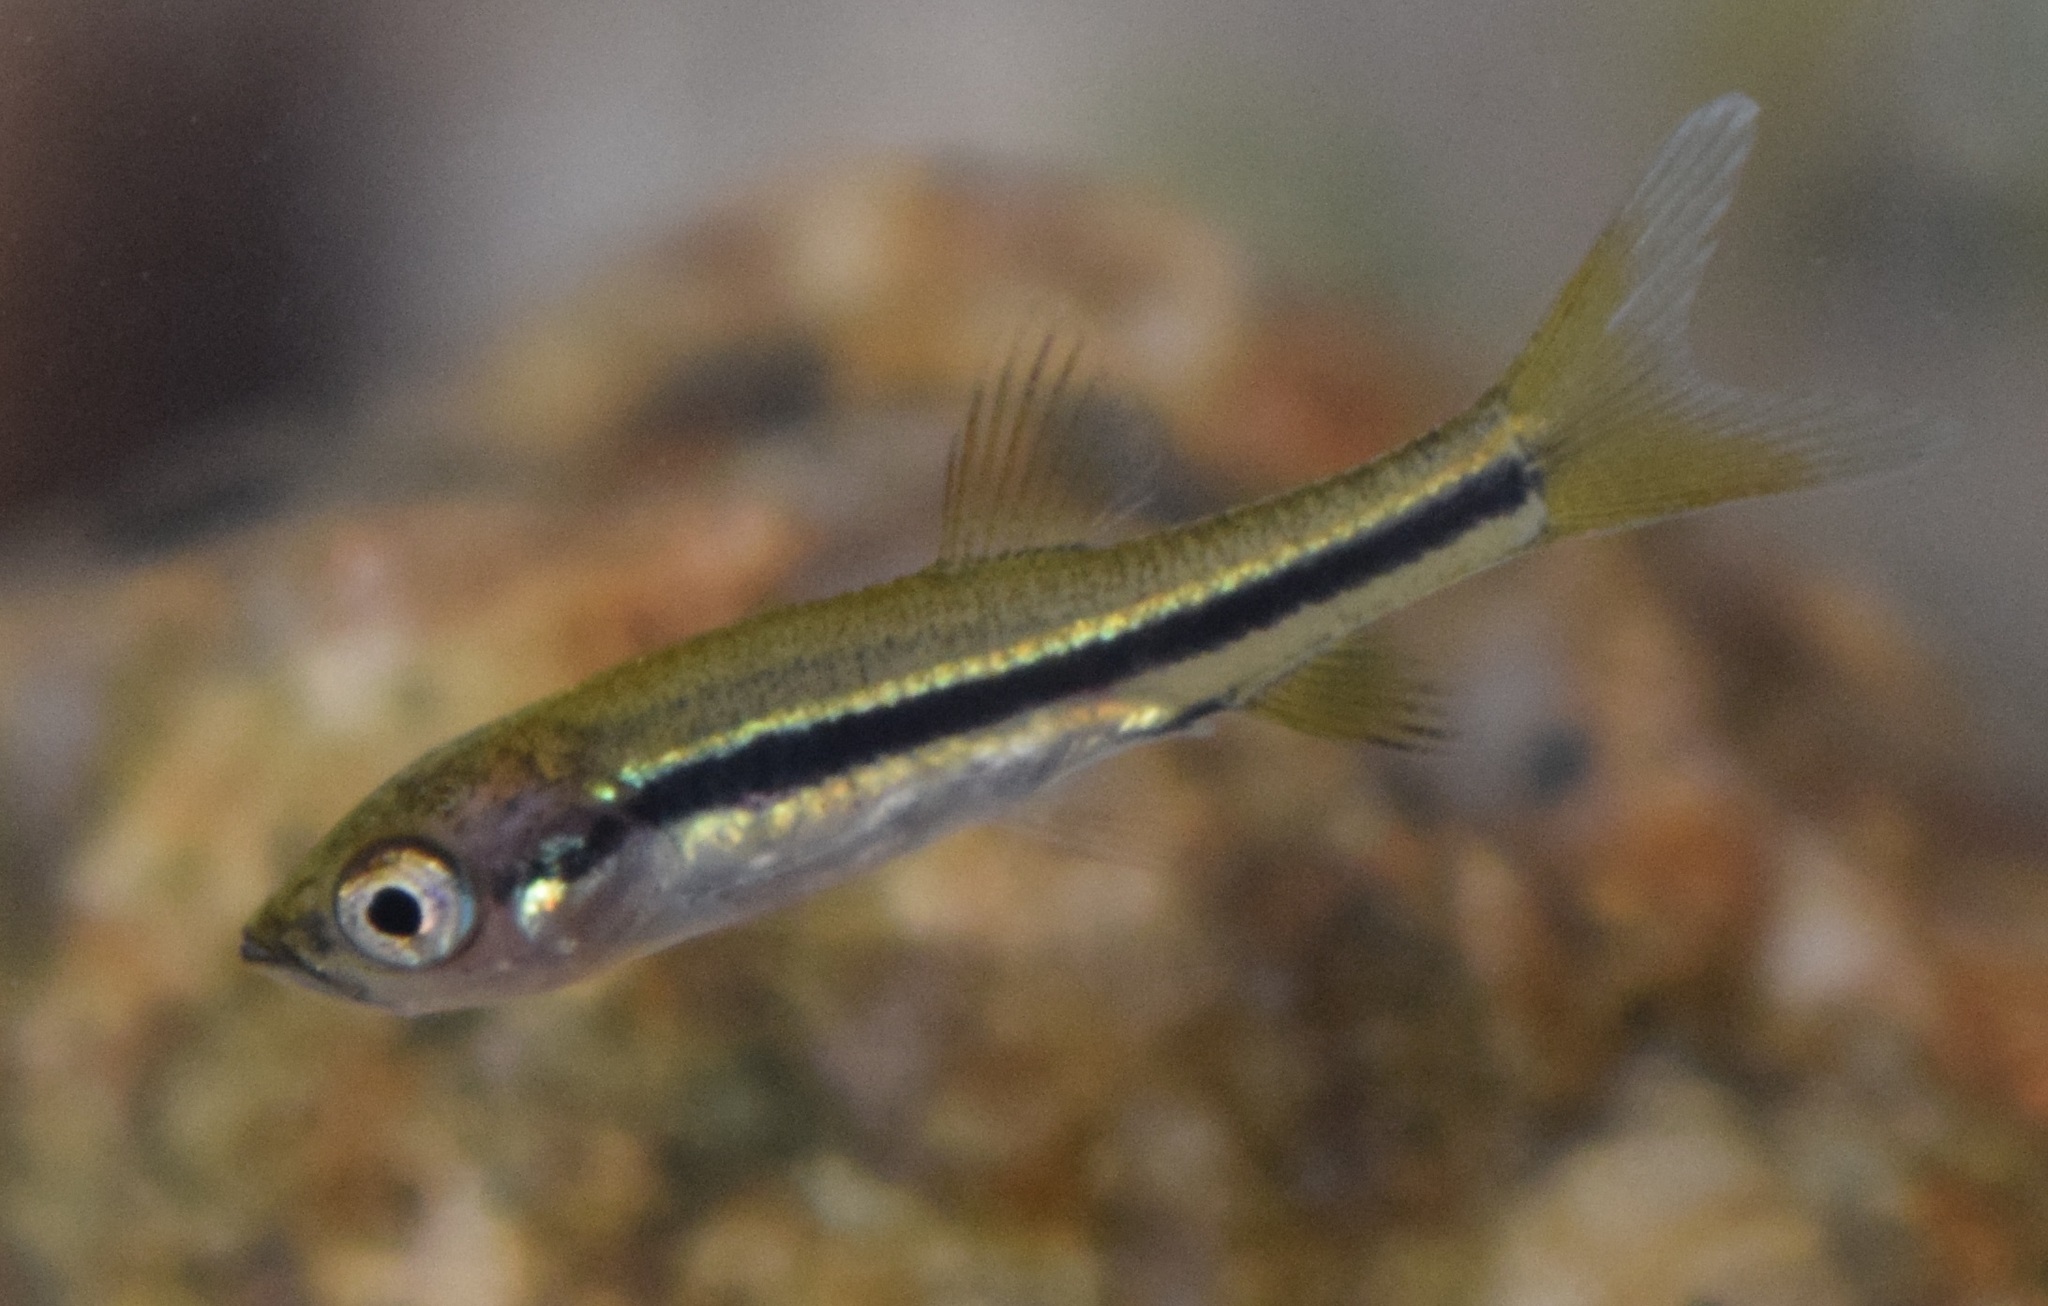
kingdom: Animalia
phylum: Chordata
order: Cypriniformes
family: Cyprinidae
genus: Rasbora
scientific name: Rasbora daniconius
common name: Common rasbora
